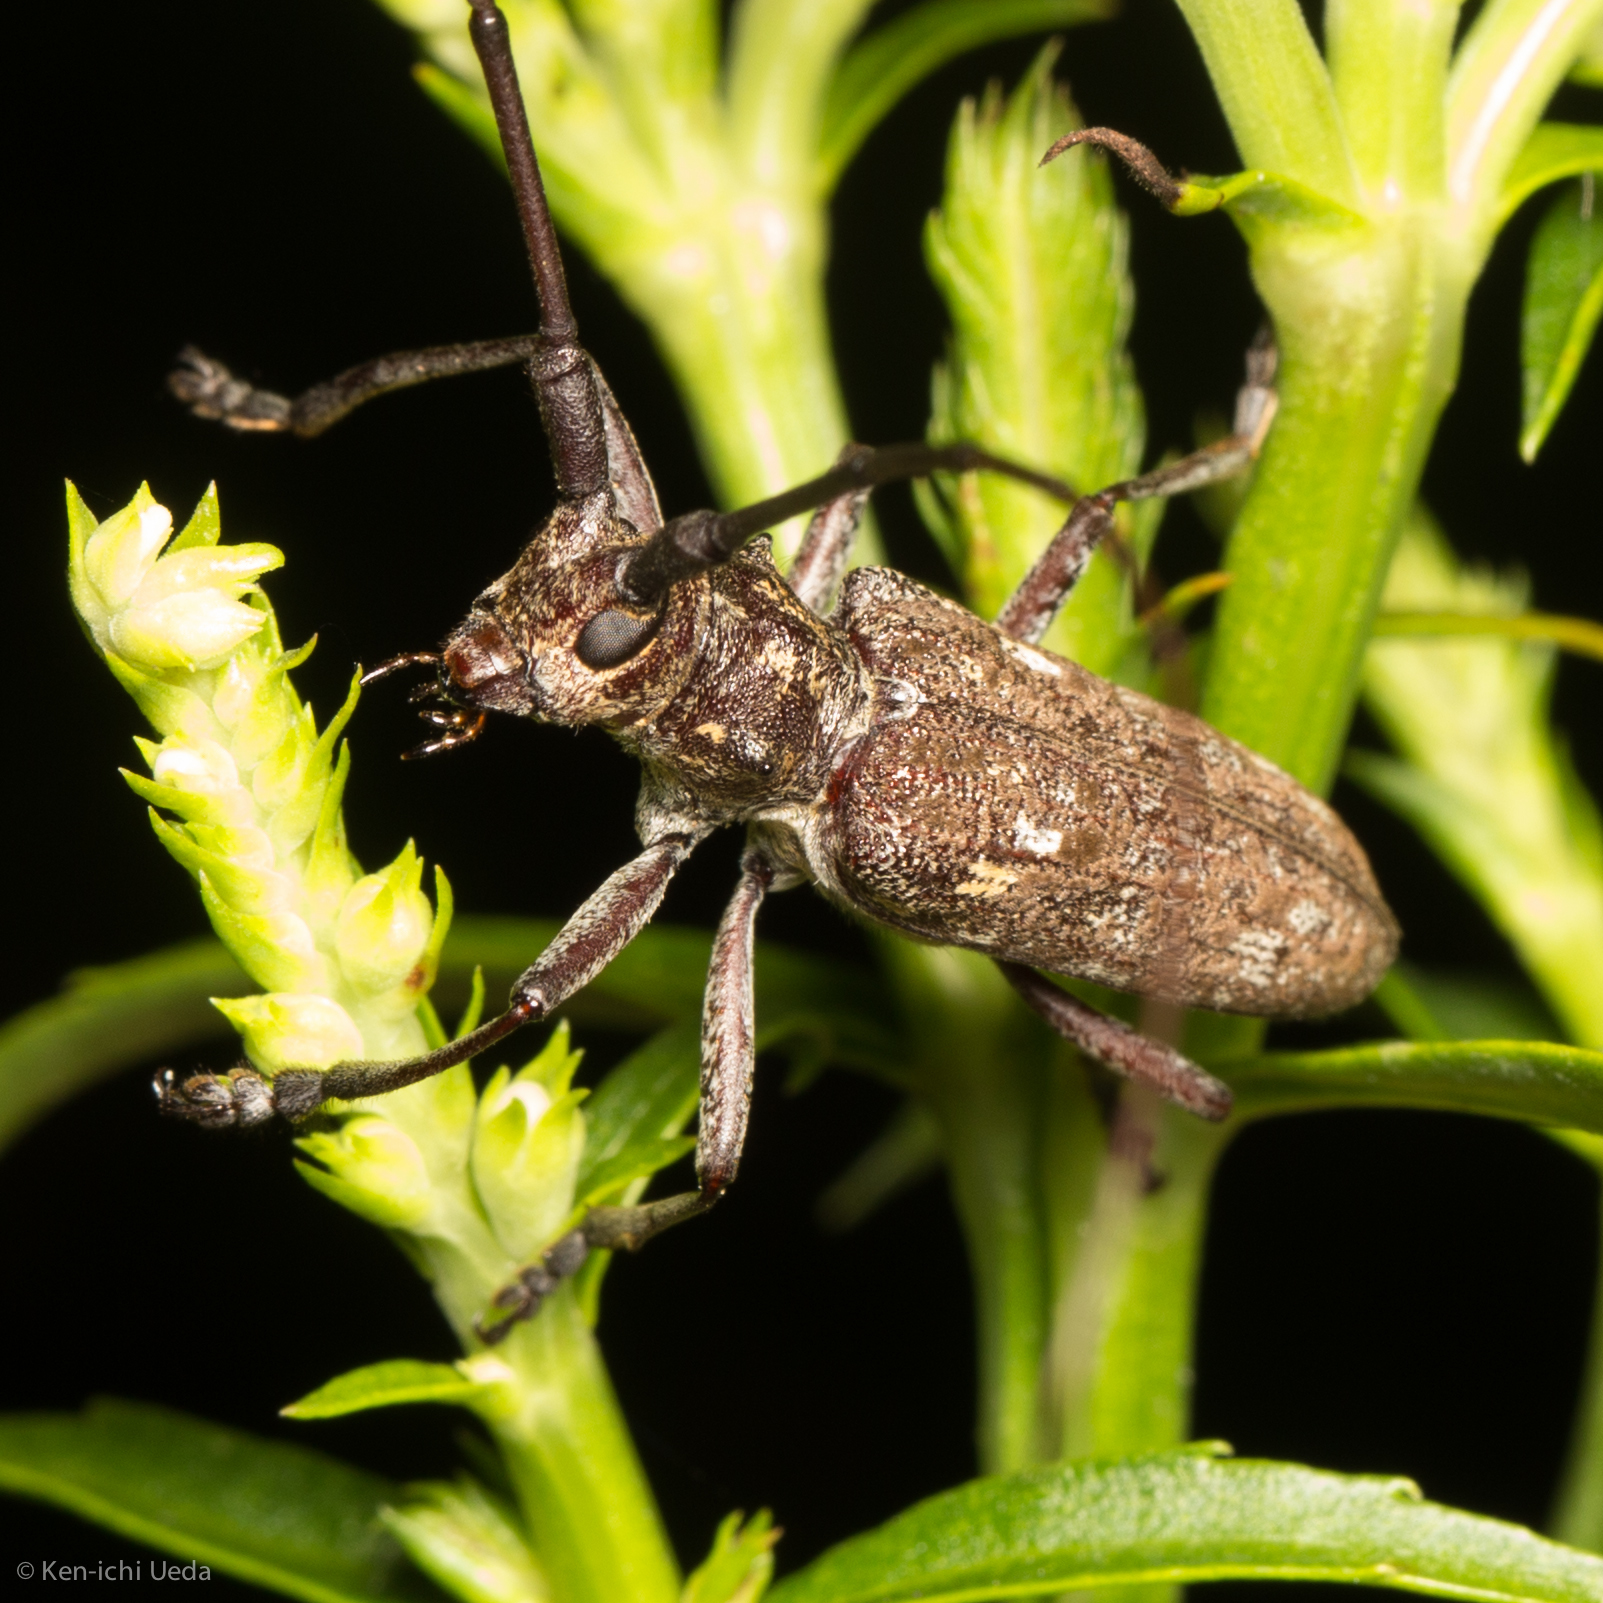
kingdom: Animalia
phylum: Arthropoda
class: Insecta
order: Coleoptera
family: Cerambycidae
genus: Monochamus
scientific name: Monochamus carolinensis
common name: Carolina pine sawyer
